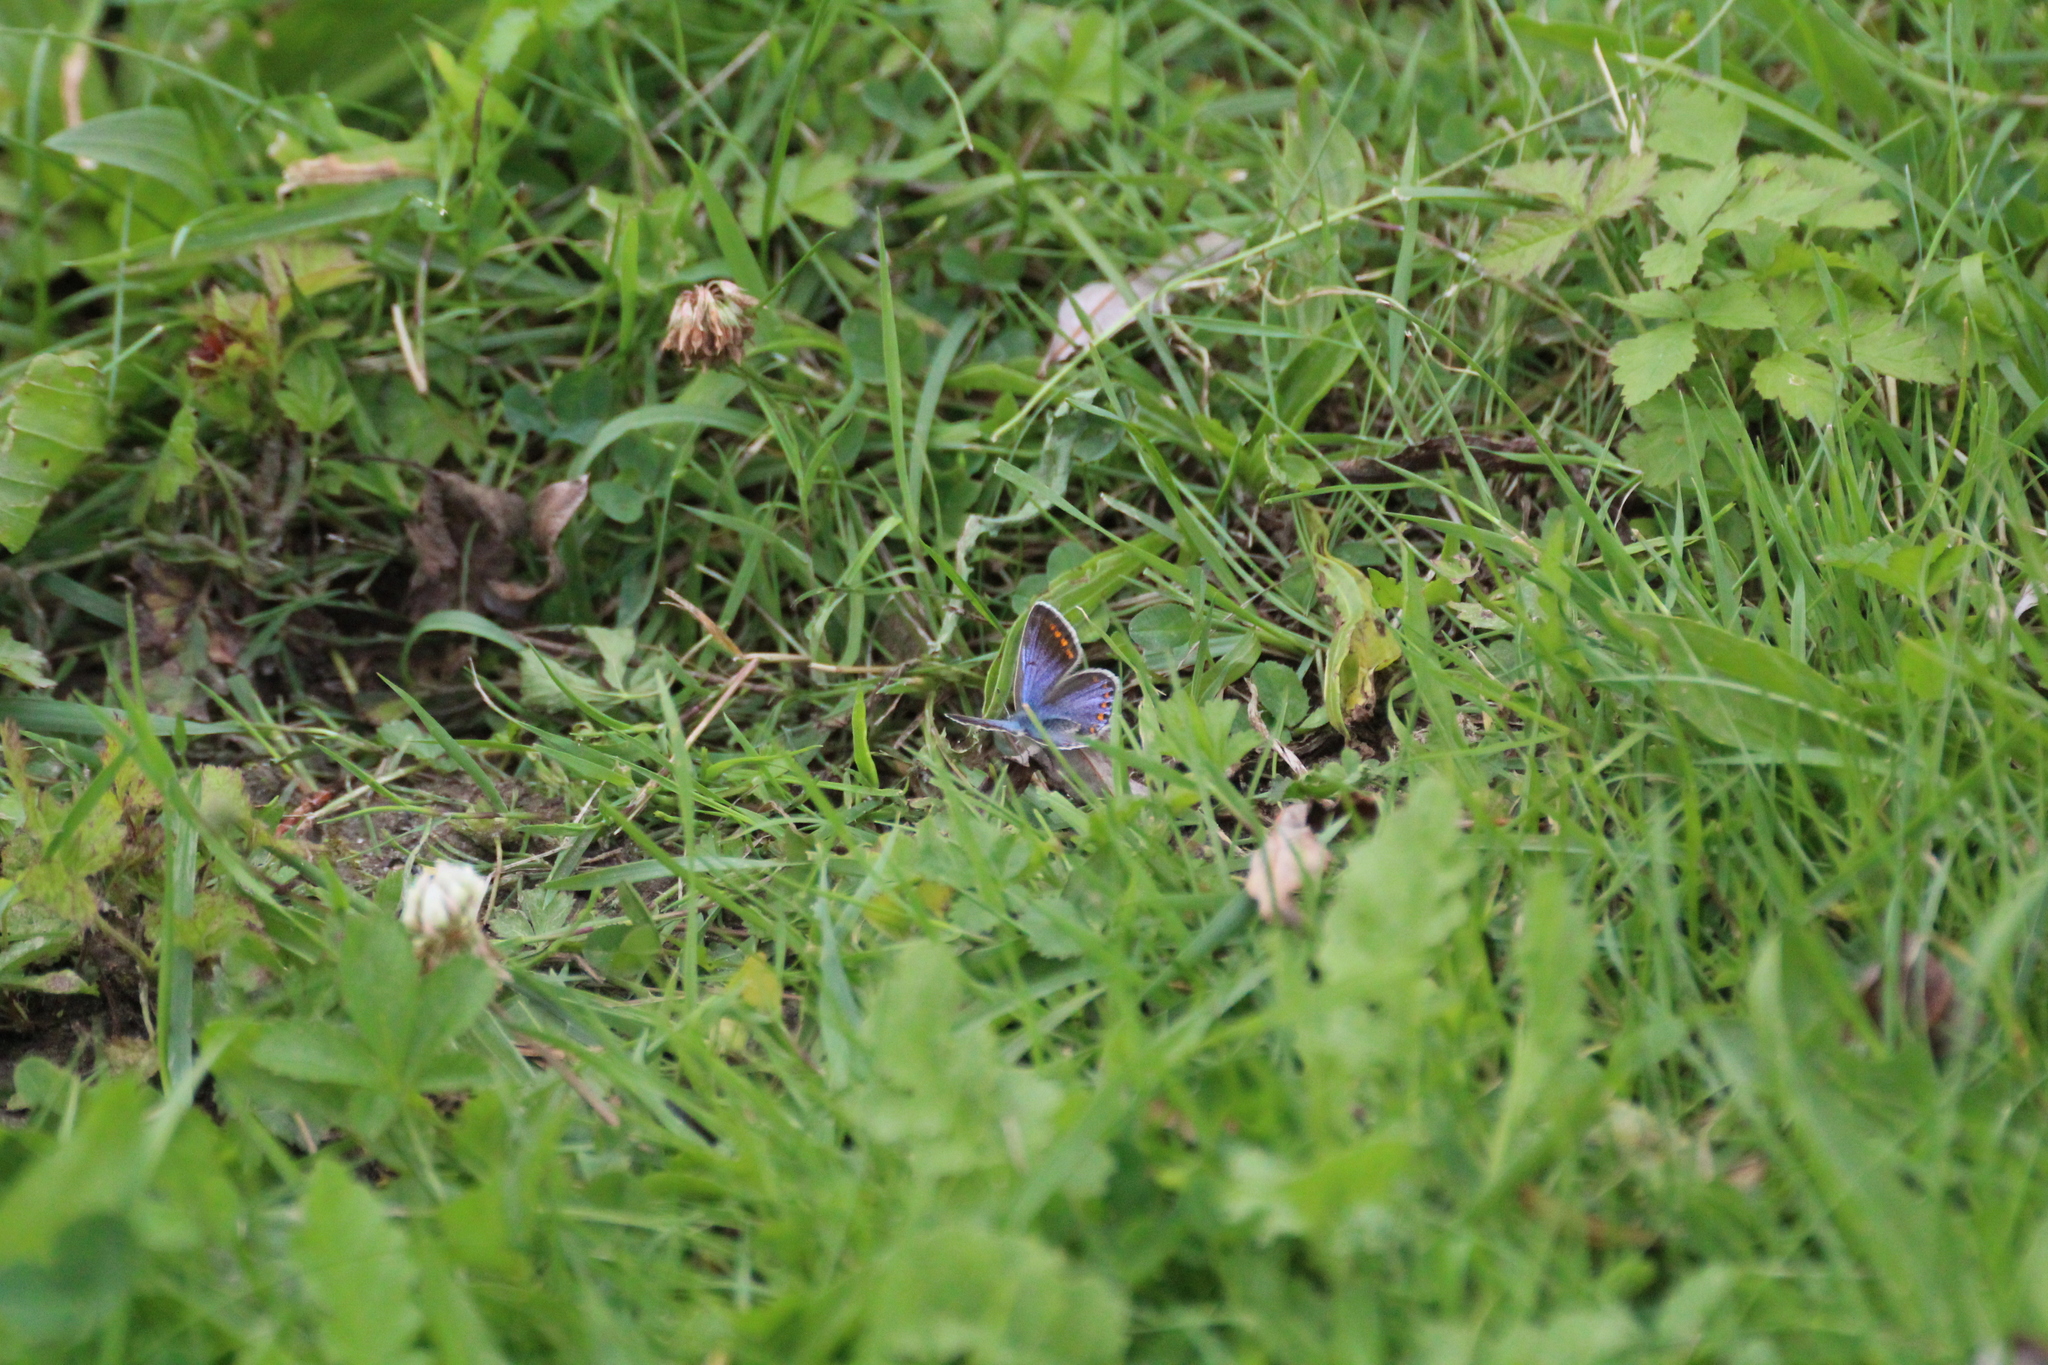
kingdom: Animalia
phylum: Arthropoda
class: Insecta
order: Lepidoptera
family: Lycaenidae
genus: Polyommatus
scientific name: Polyommatus icarus
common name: Common blue
